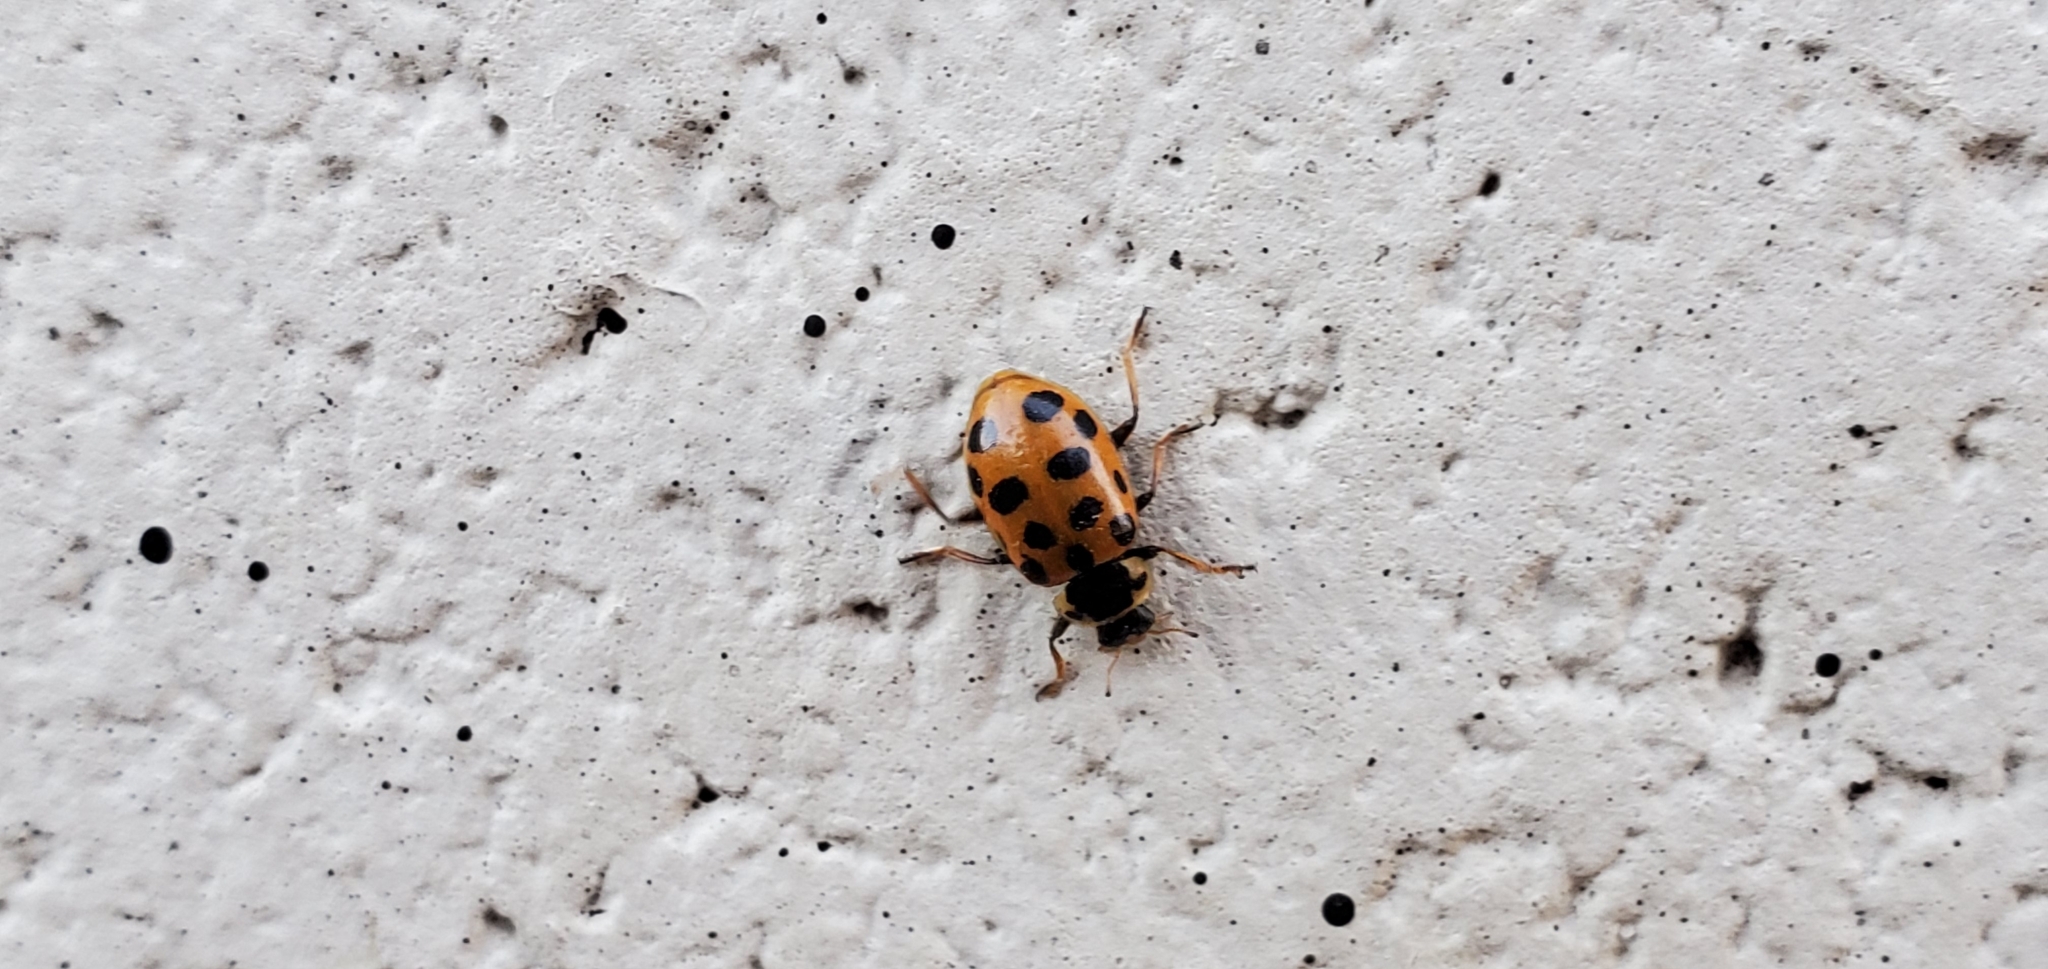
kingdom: Animalia
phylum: Arthropoda
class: Insecta
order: Coleoptera
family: Coccinellidae
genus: Hippodamia
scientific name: Hippodamia tredecimpunctata
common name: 13-spot ladybird
